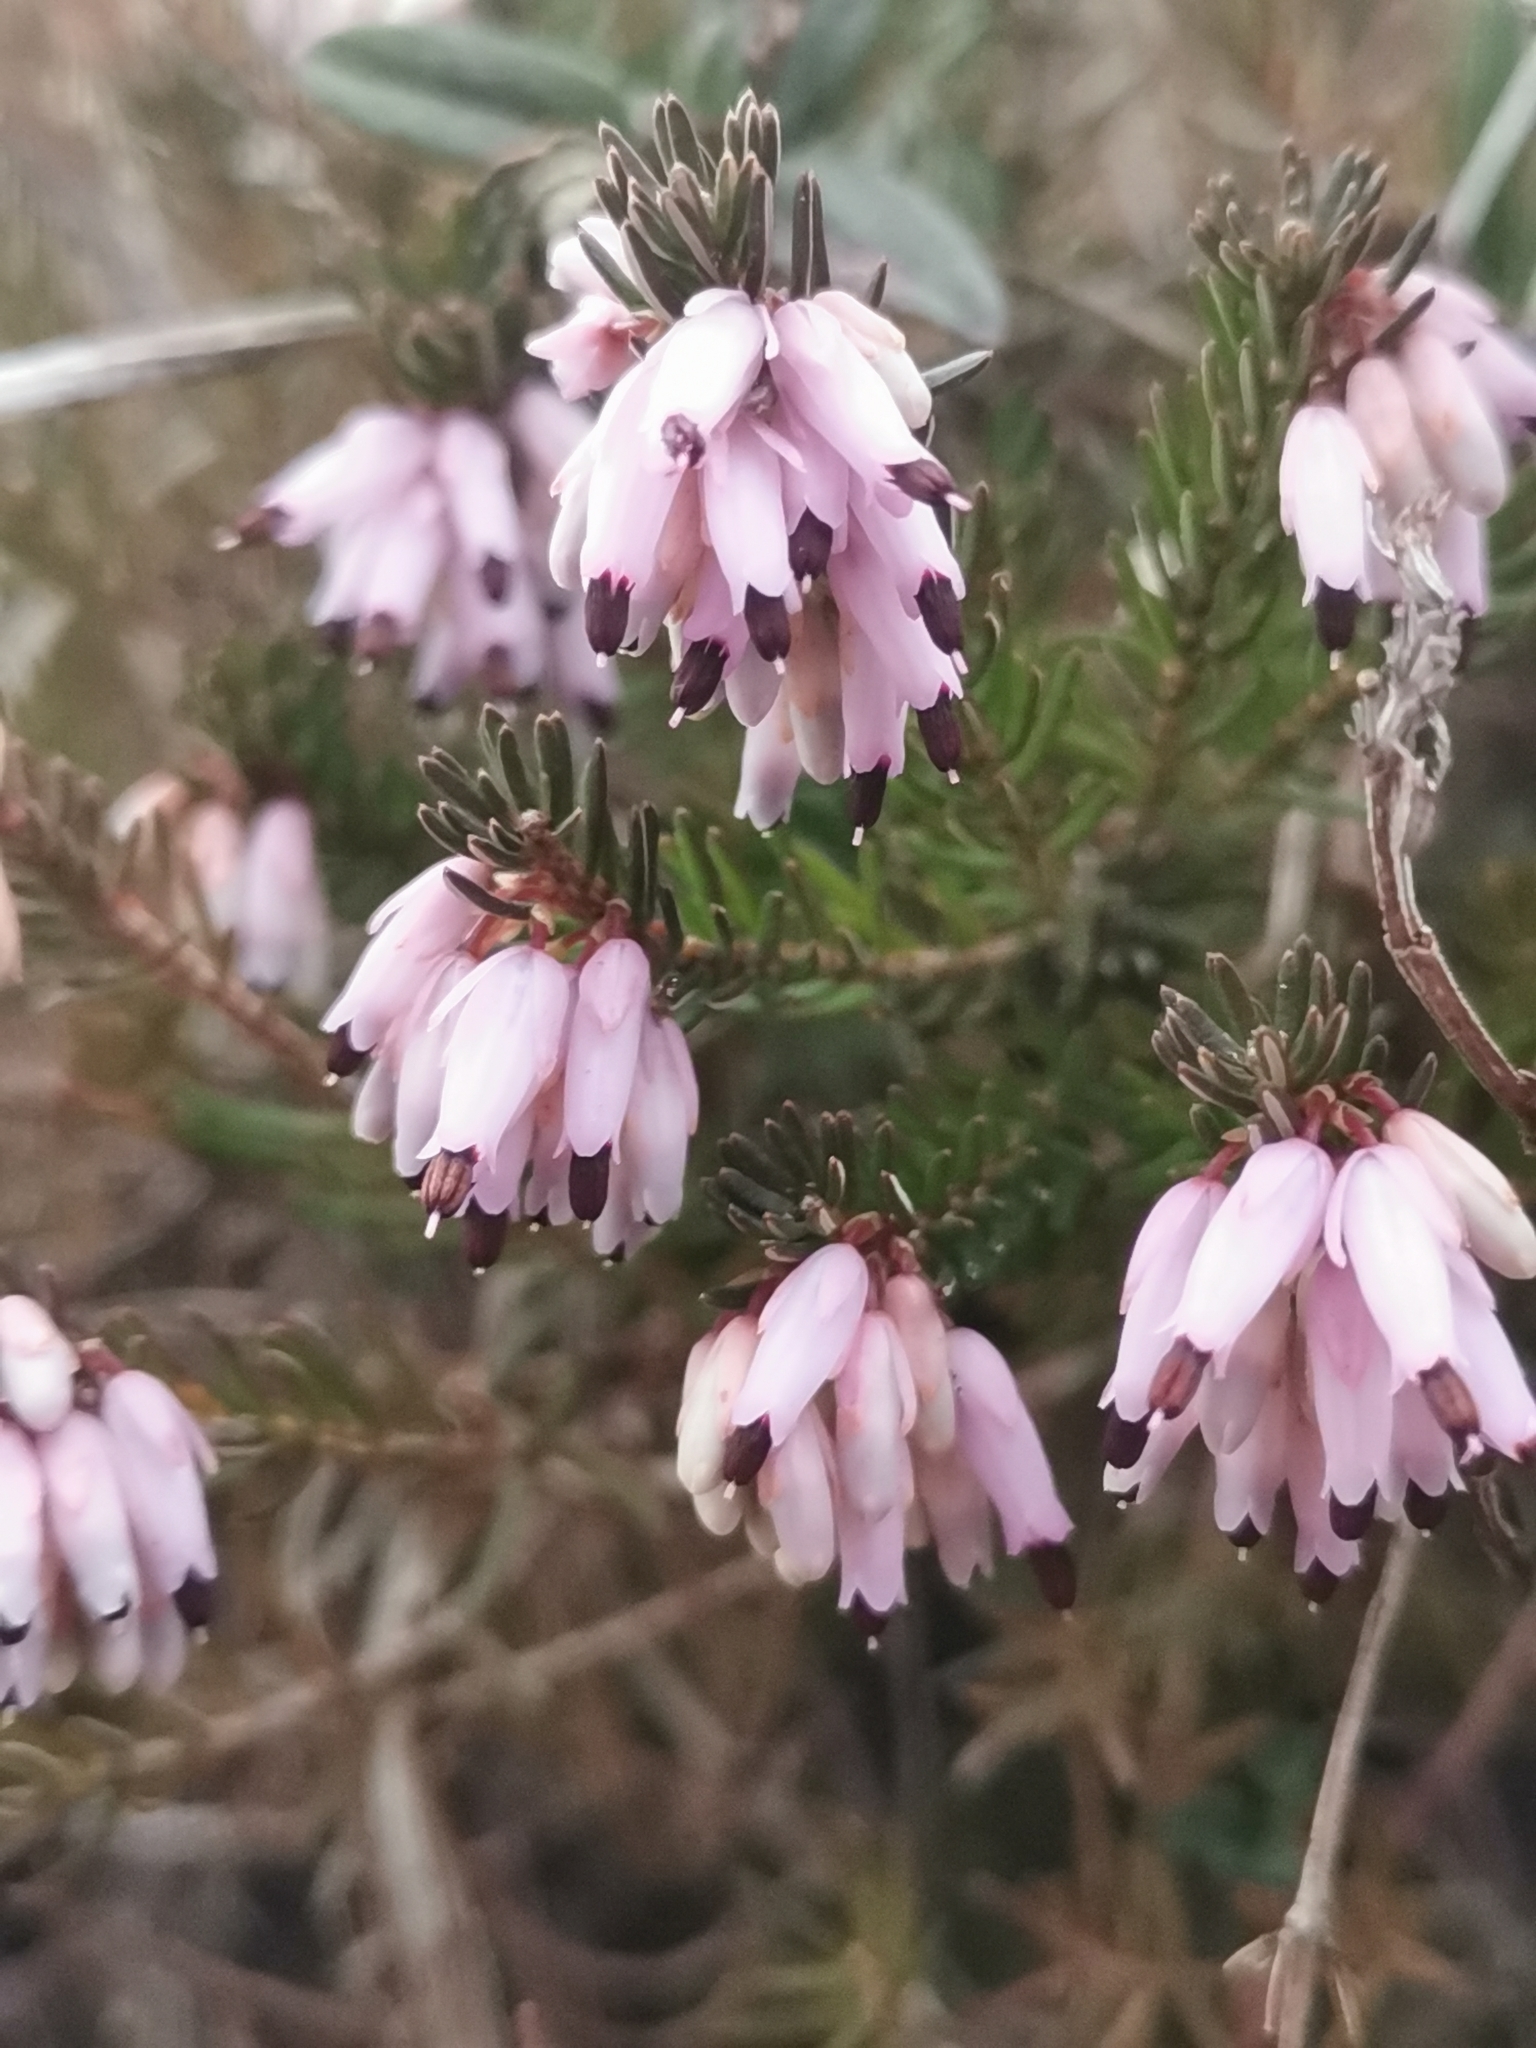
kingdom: Plantae
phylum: Tracheophyta
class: Magnoliopsida
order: Ericales
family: Ericaceae
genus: Erica
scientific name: Erica carnea
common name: Winter heath
